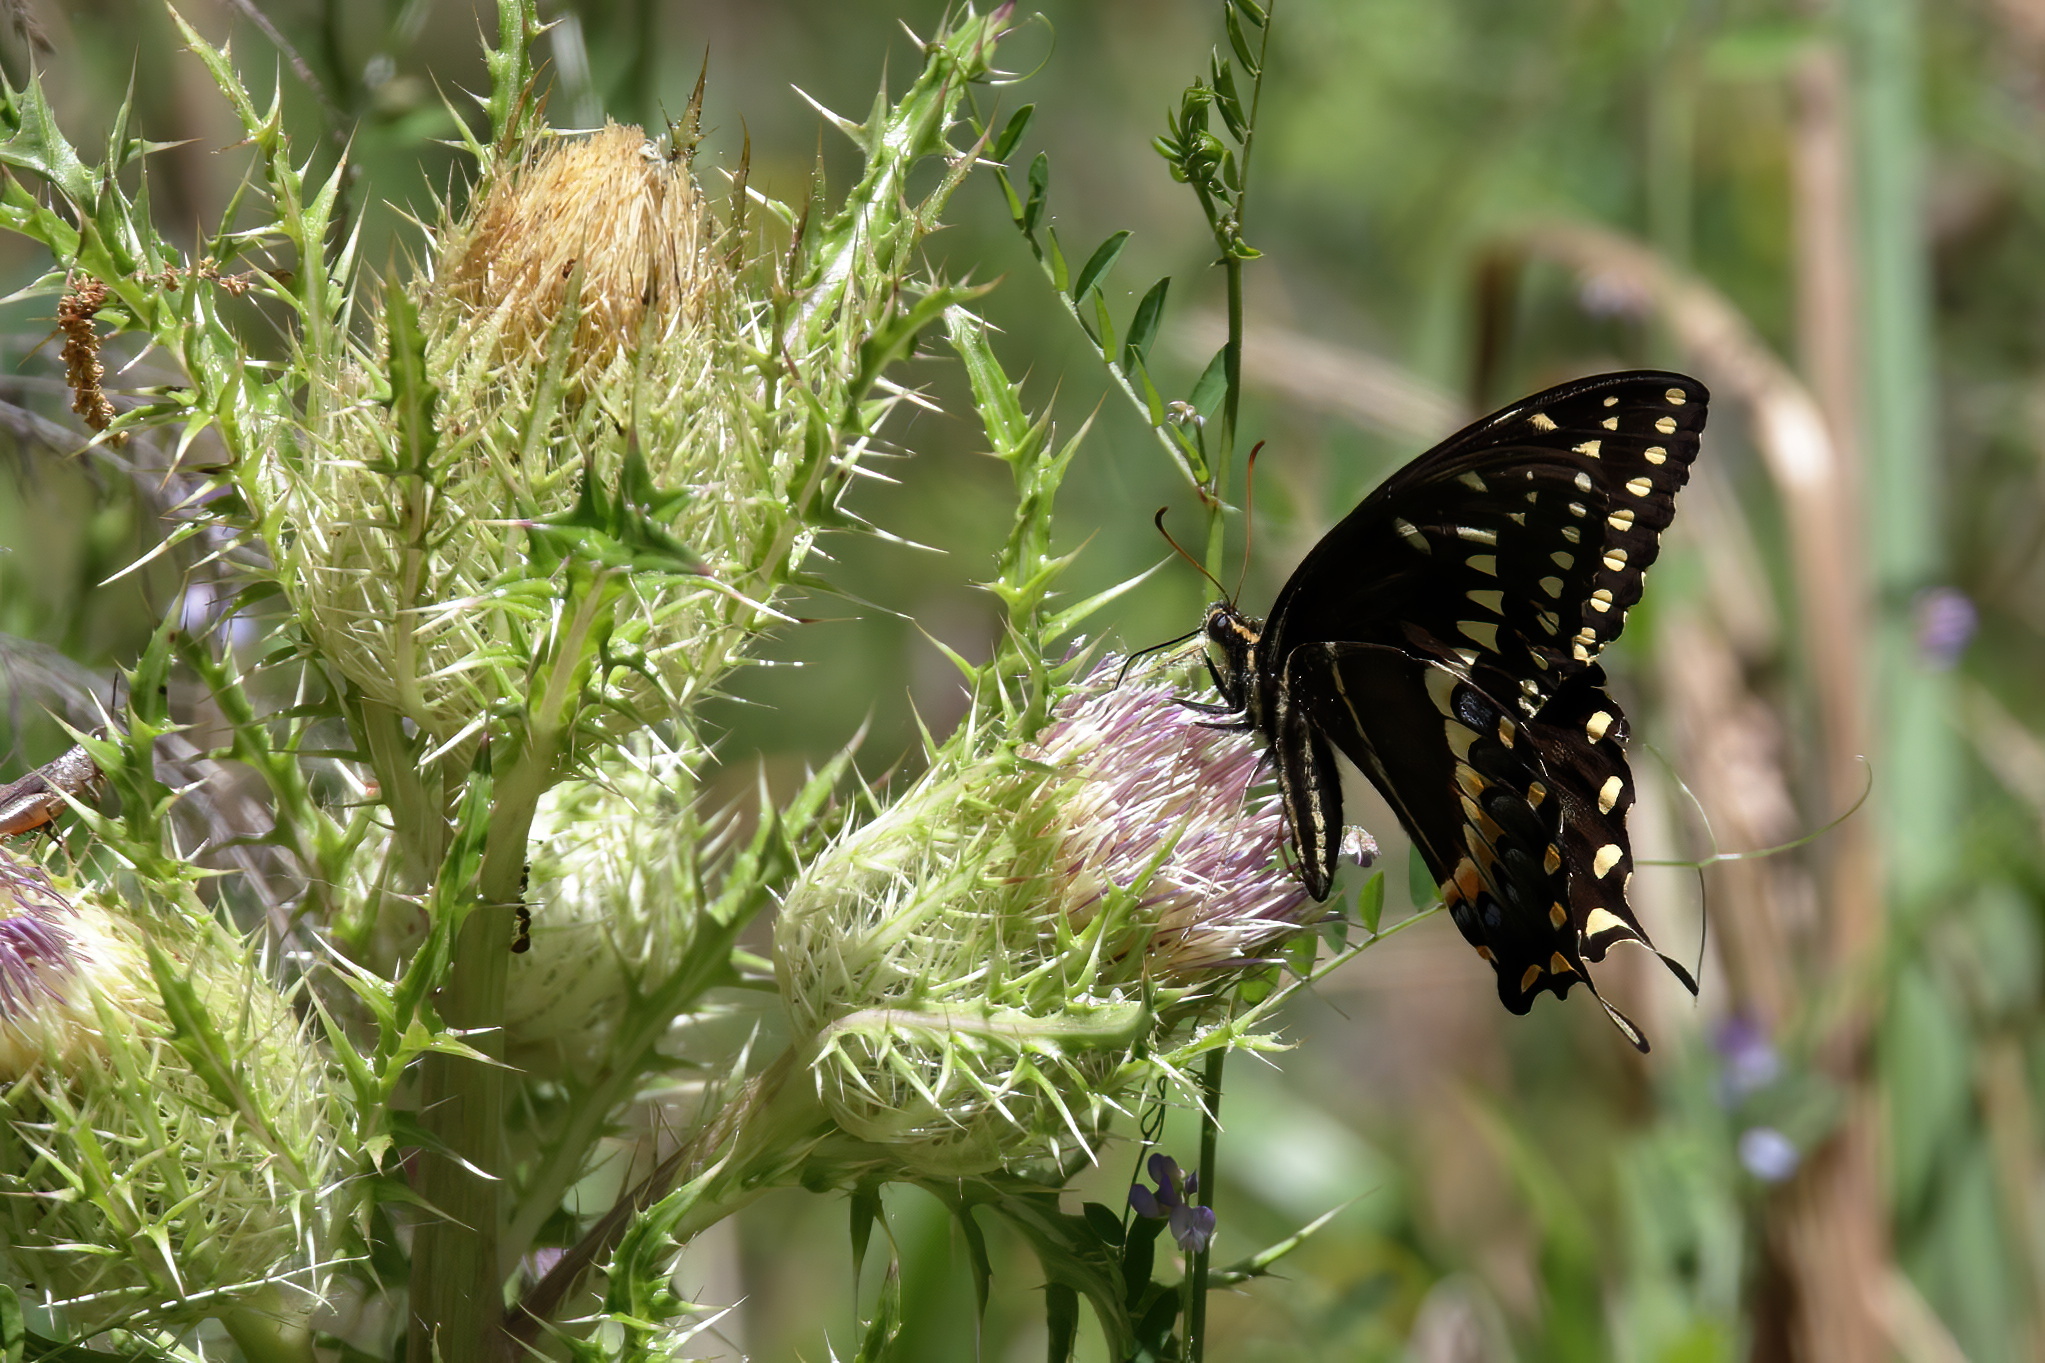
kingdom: Animalia
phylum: Arthropoda
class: Insecta
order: Lepidoptera
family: Papilionidae
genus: Papilio
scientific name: Papilio palamedes
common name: Palamedes swallowtail
